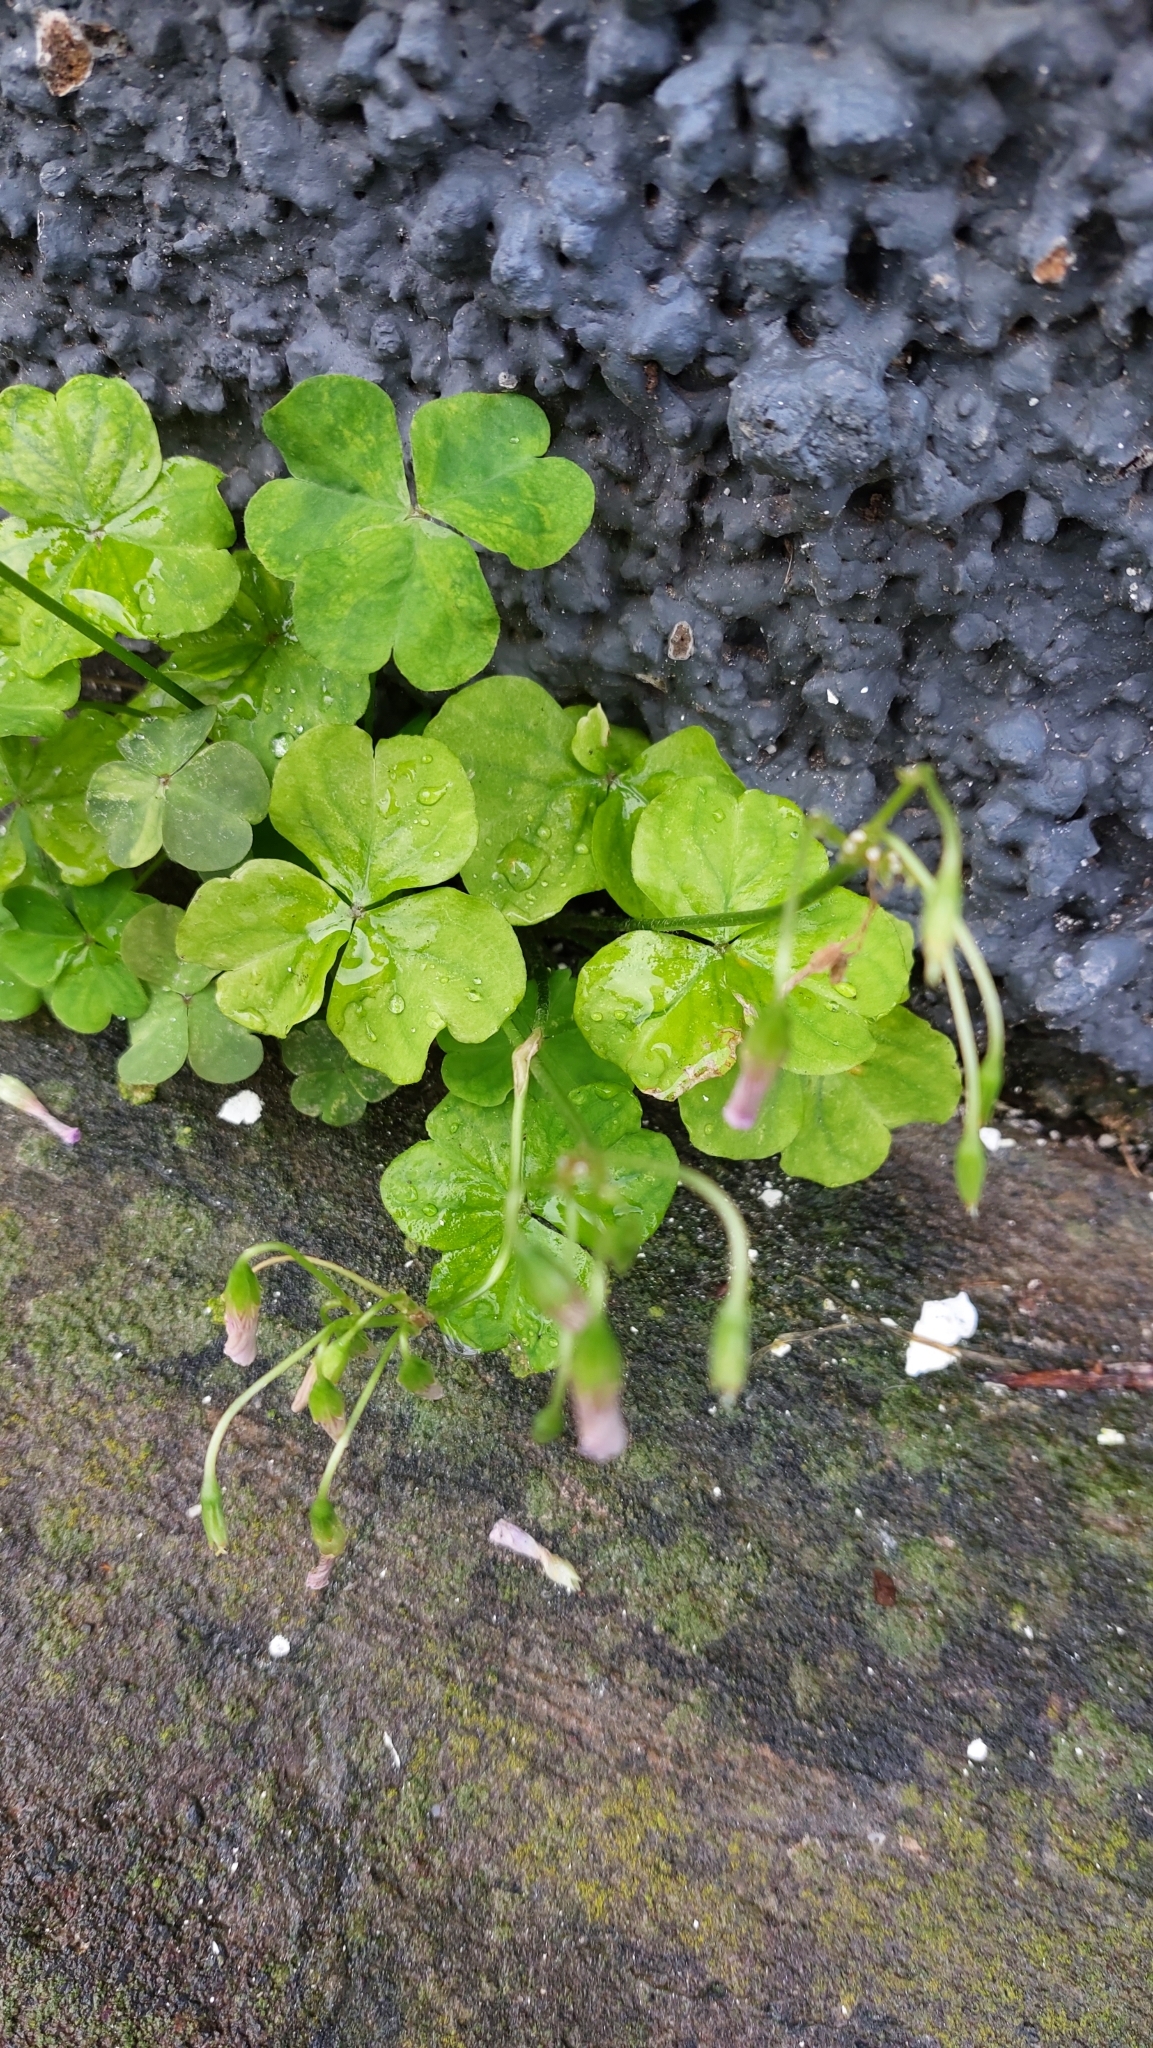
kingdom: Plantae
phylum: Tracheophyta
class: Magnoliopsida
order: Oxalidales
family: Oxalidaceae
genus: Oxalis
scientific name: Oxalis debilis
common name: Large-flowered pink-sorrel
